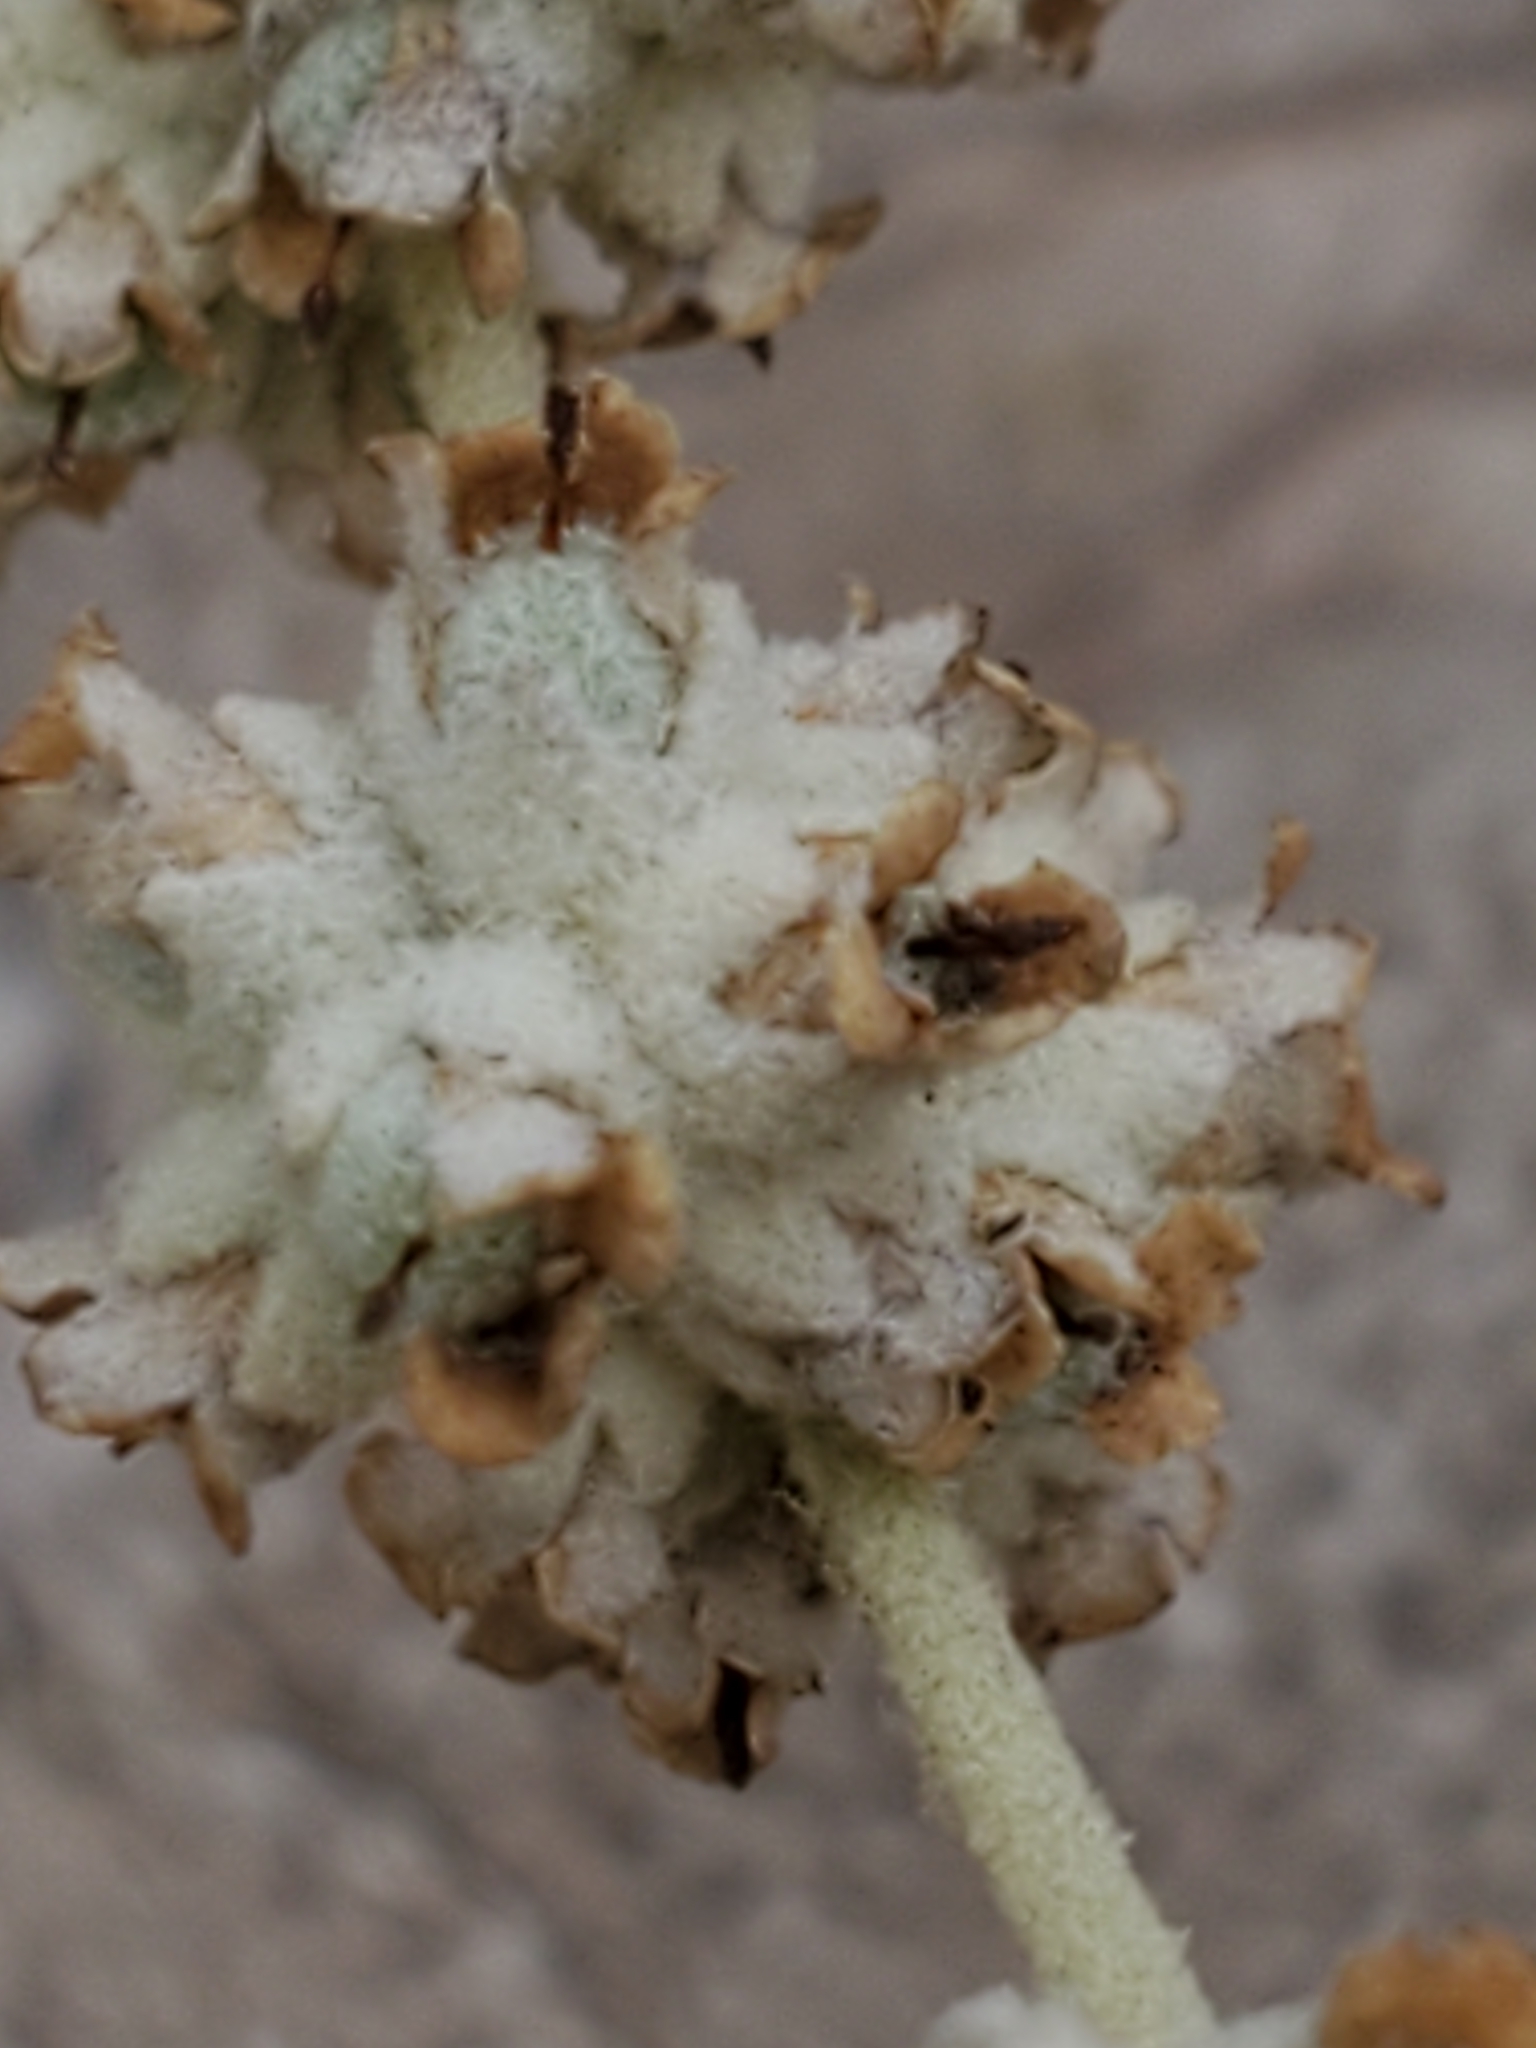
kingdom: Plantae
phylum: Tracheophyta
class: Magnoliopsida
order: Lamiales
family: Scrophulariaceae
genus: Buddleja
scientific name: Buddleja racemosa
